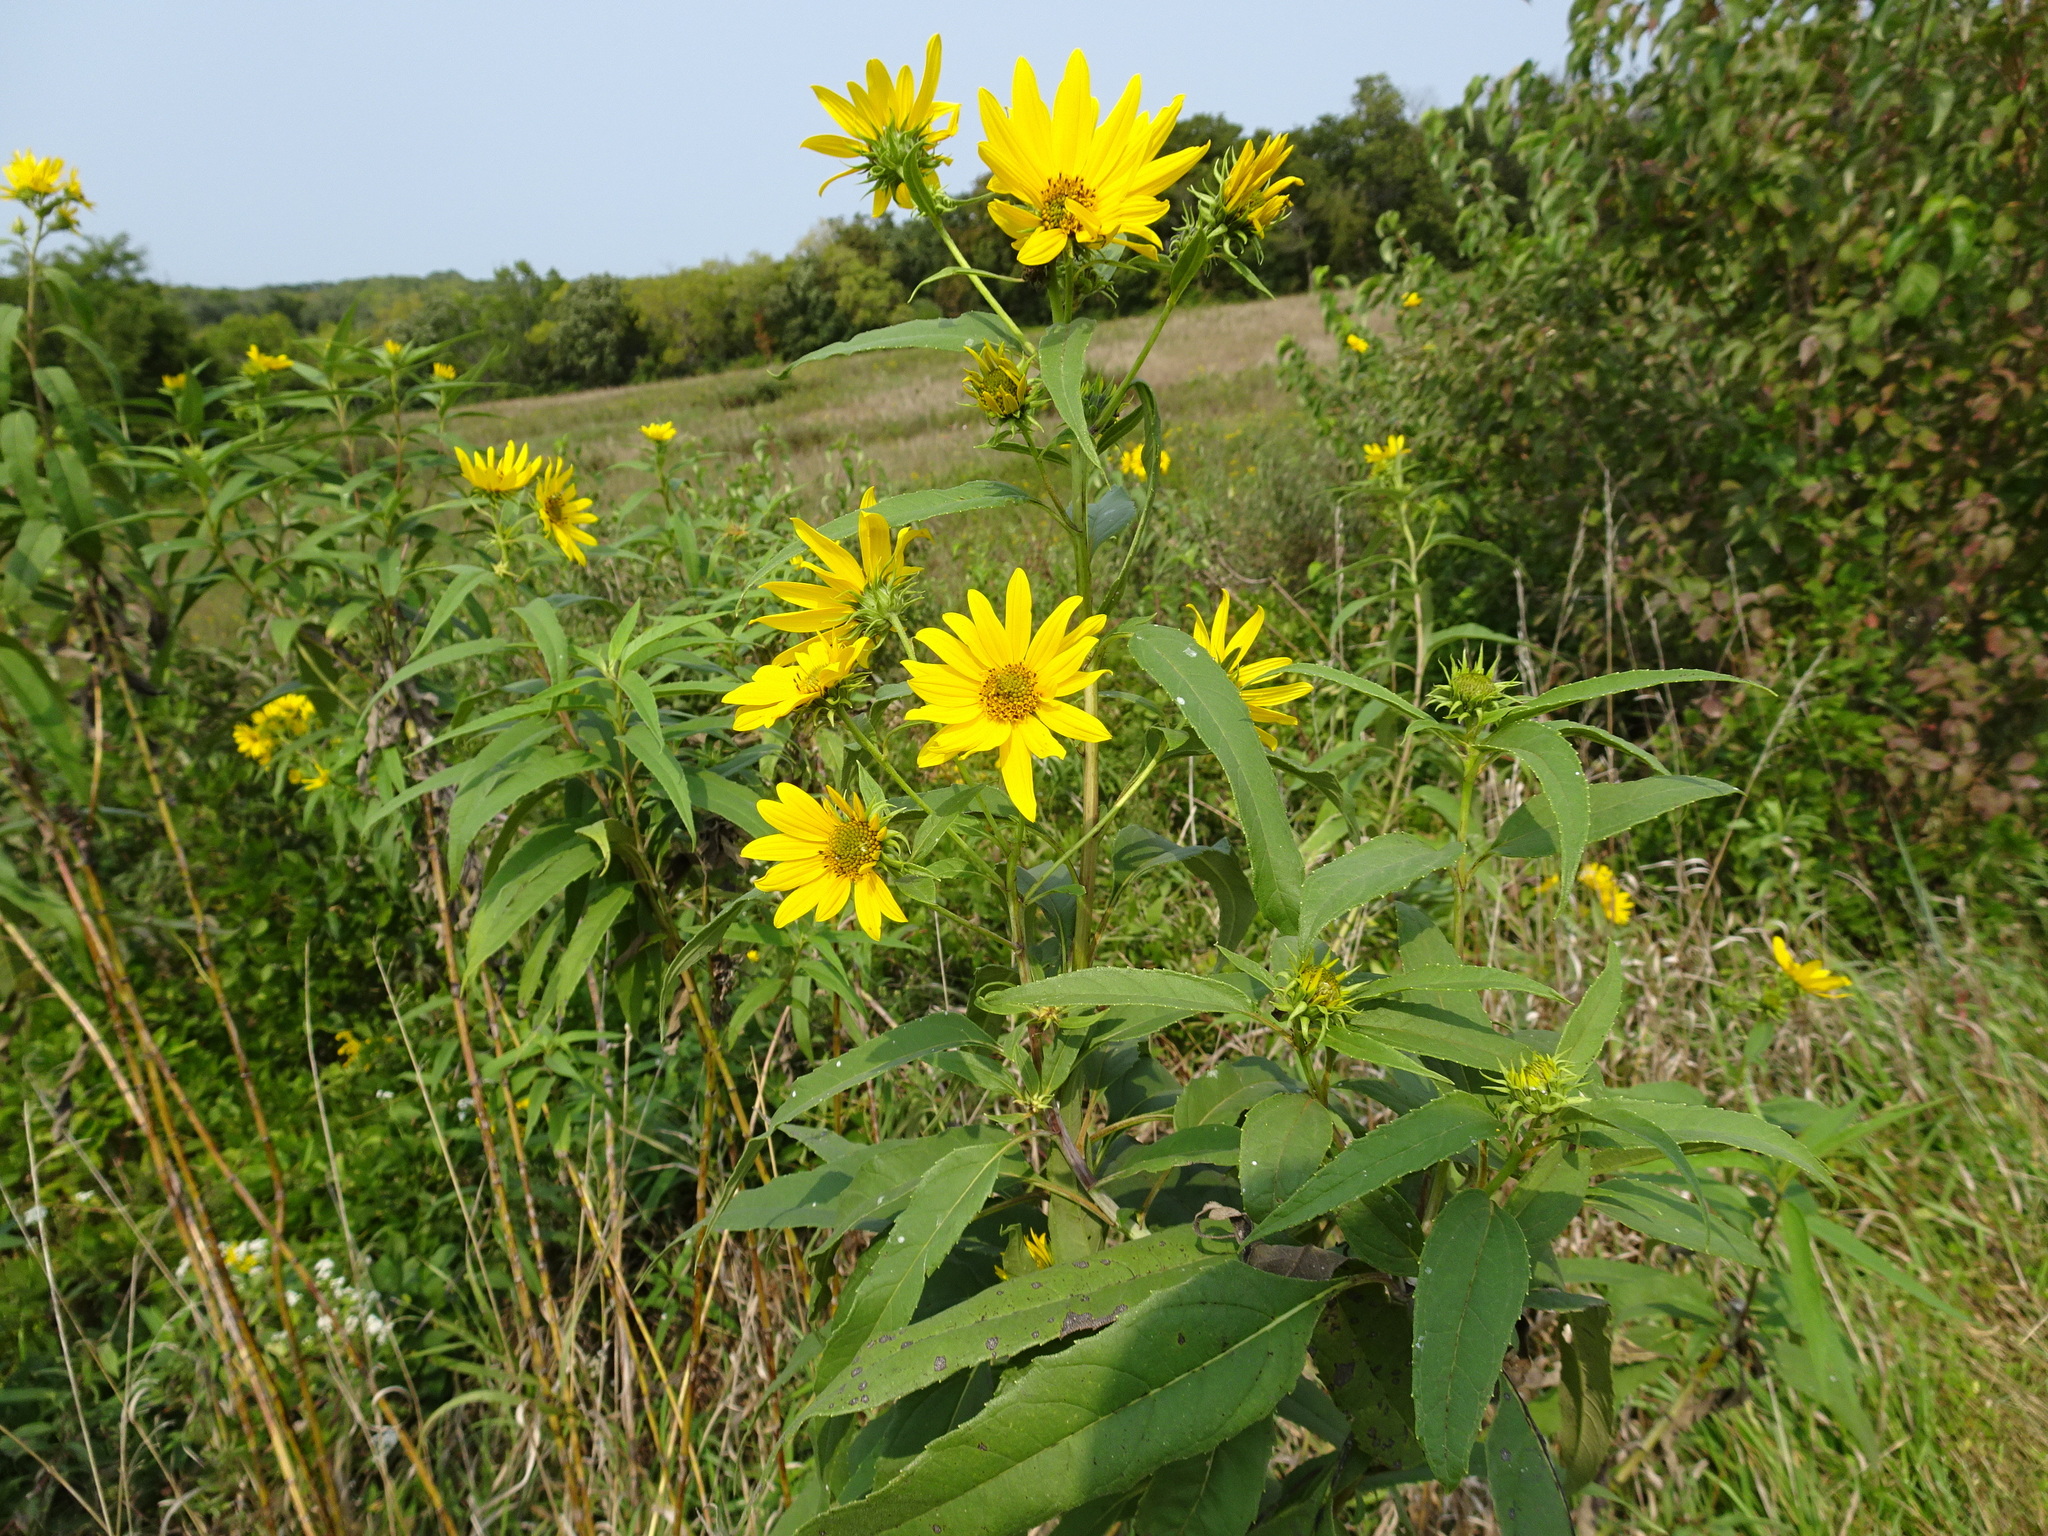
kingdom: Plantae
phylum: Tracheophyta
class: Magnoliopsida
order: Asterales
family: Asteraceae
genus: Helianthus
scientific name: Helianthus grosseserratus
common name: Sawtooth sunflower
